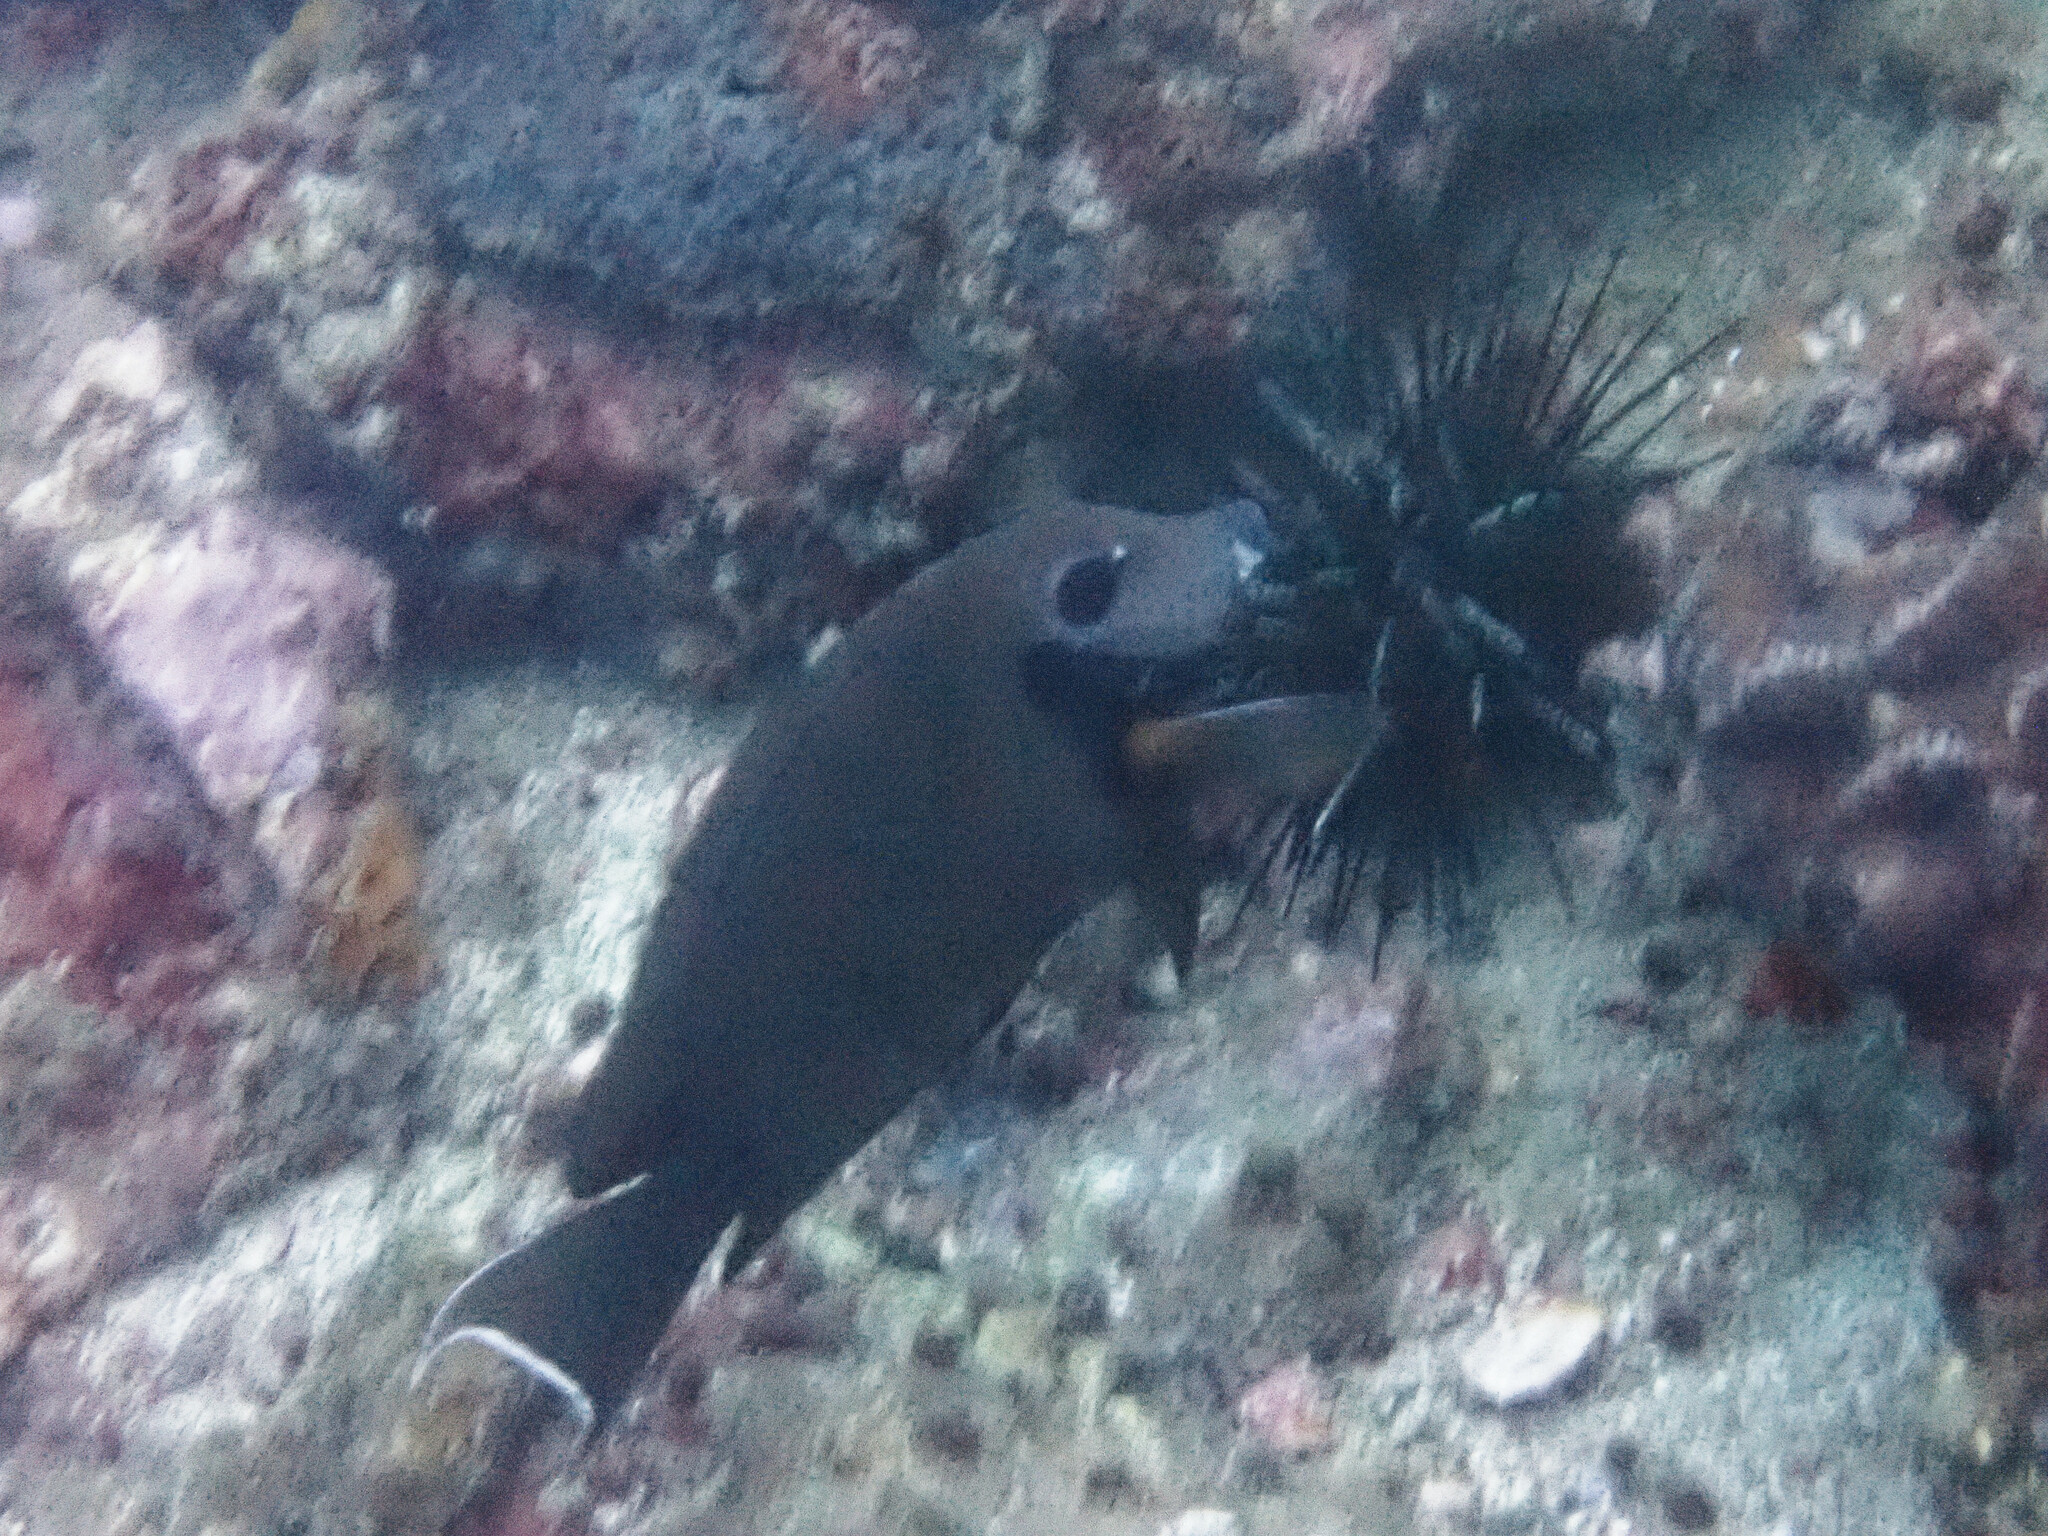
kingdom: Animalia
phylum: Chordata
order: Perciformes
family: Acanthuridae
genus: Acanthurus
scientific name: Acanthurus tristis
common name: Blackcheek surgeonfish
